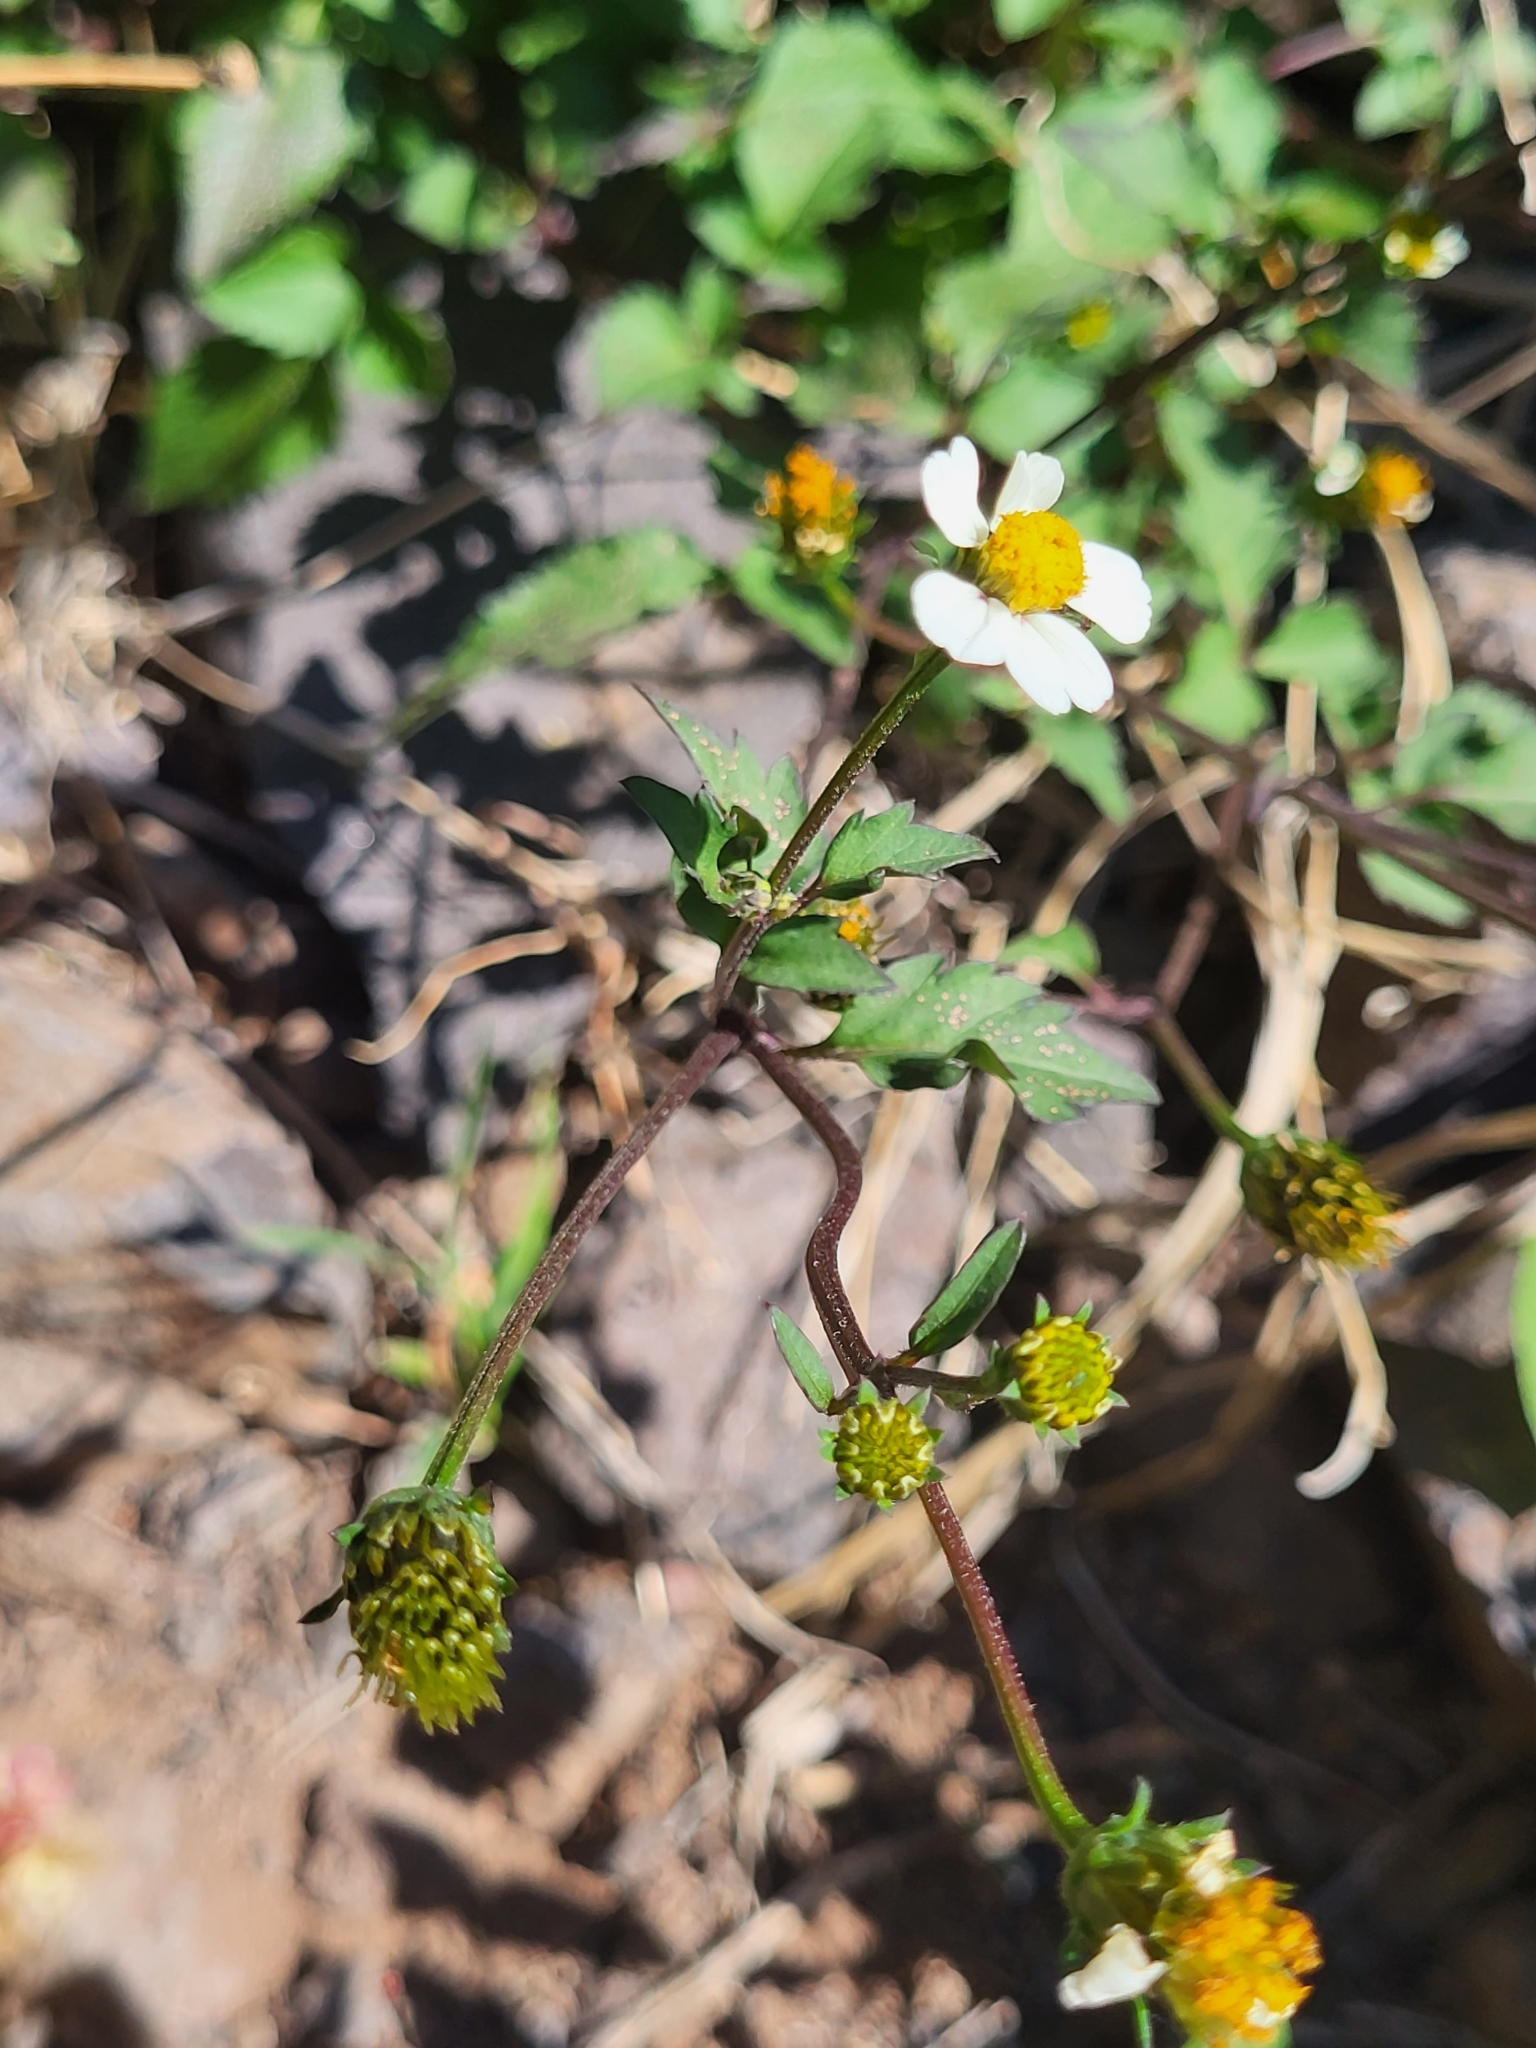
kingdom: Plantae
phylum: Tracheophyta
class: Magnoliopsida
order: Asterales
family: Asteraceae
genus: Bidens
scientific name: Bidens pilosa
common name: Black-jack
